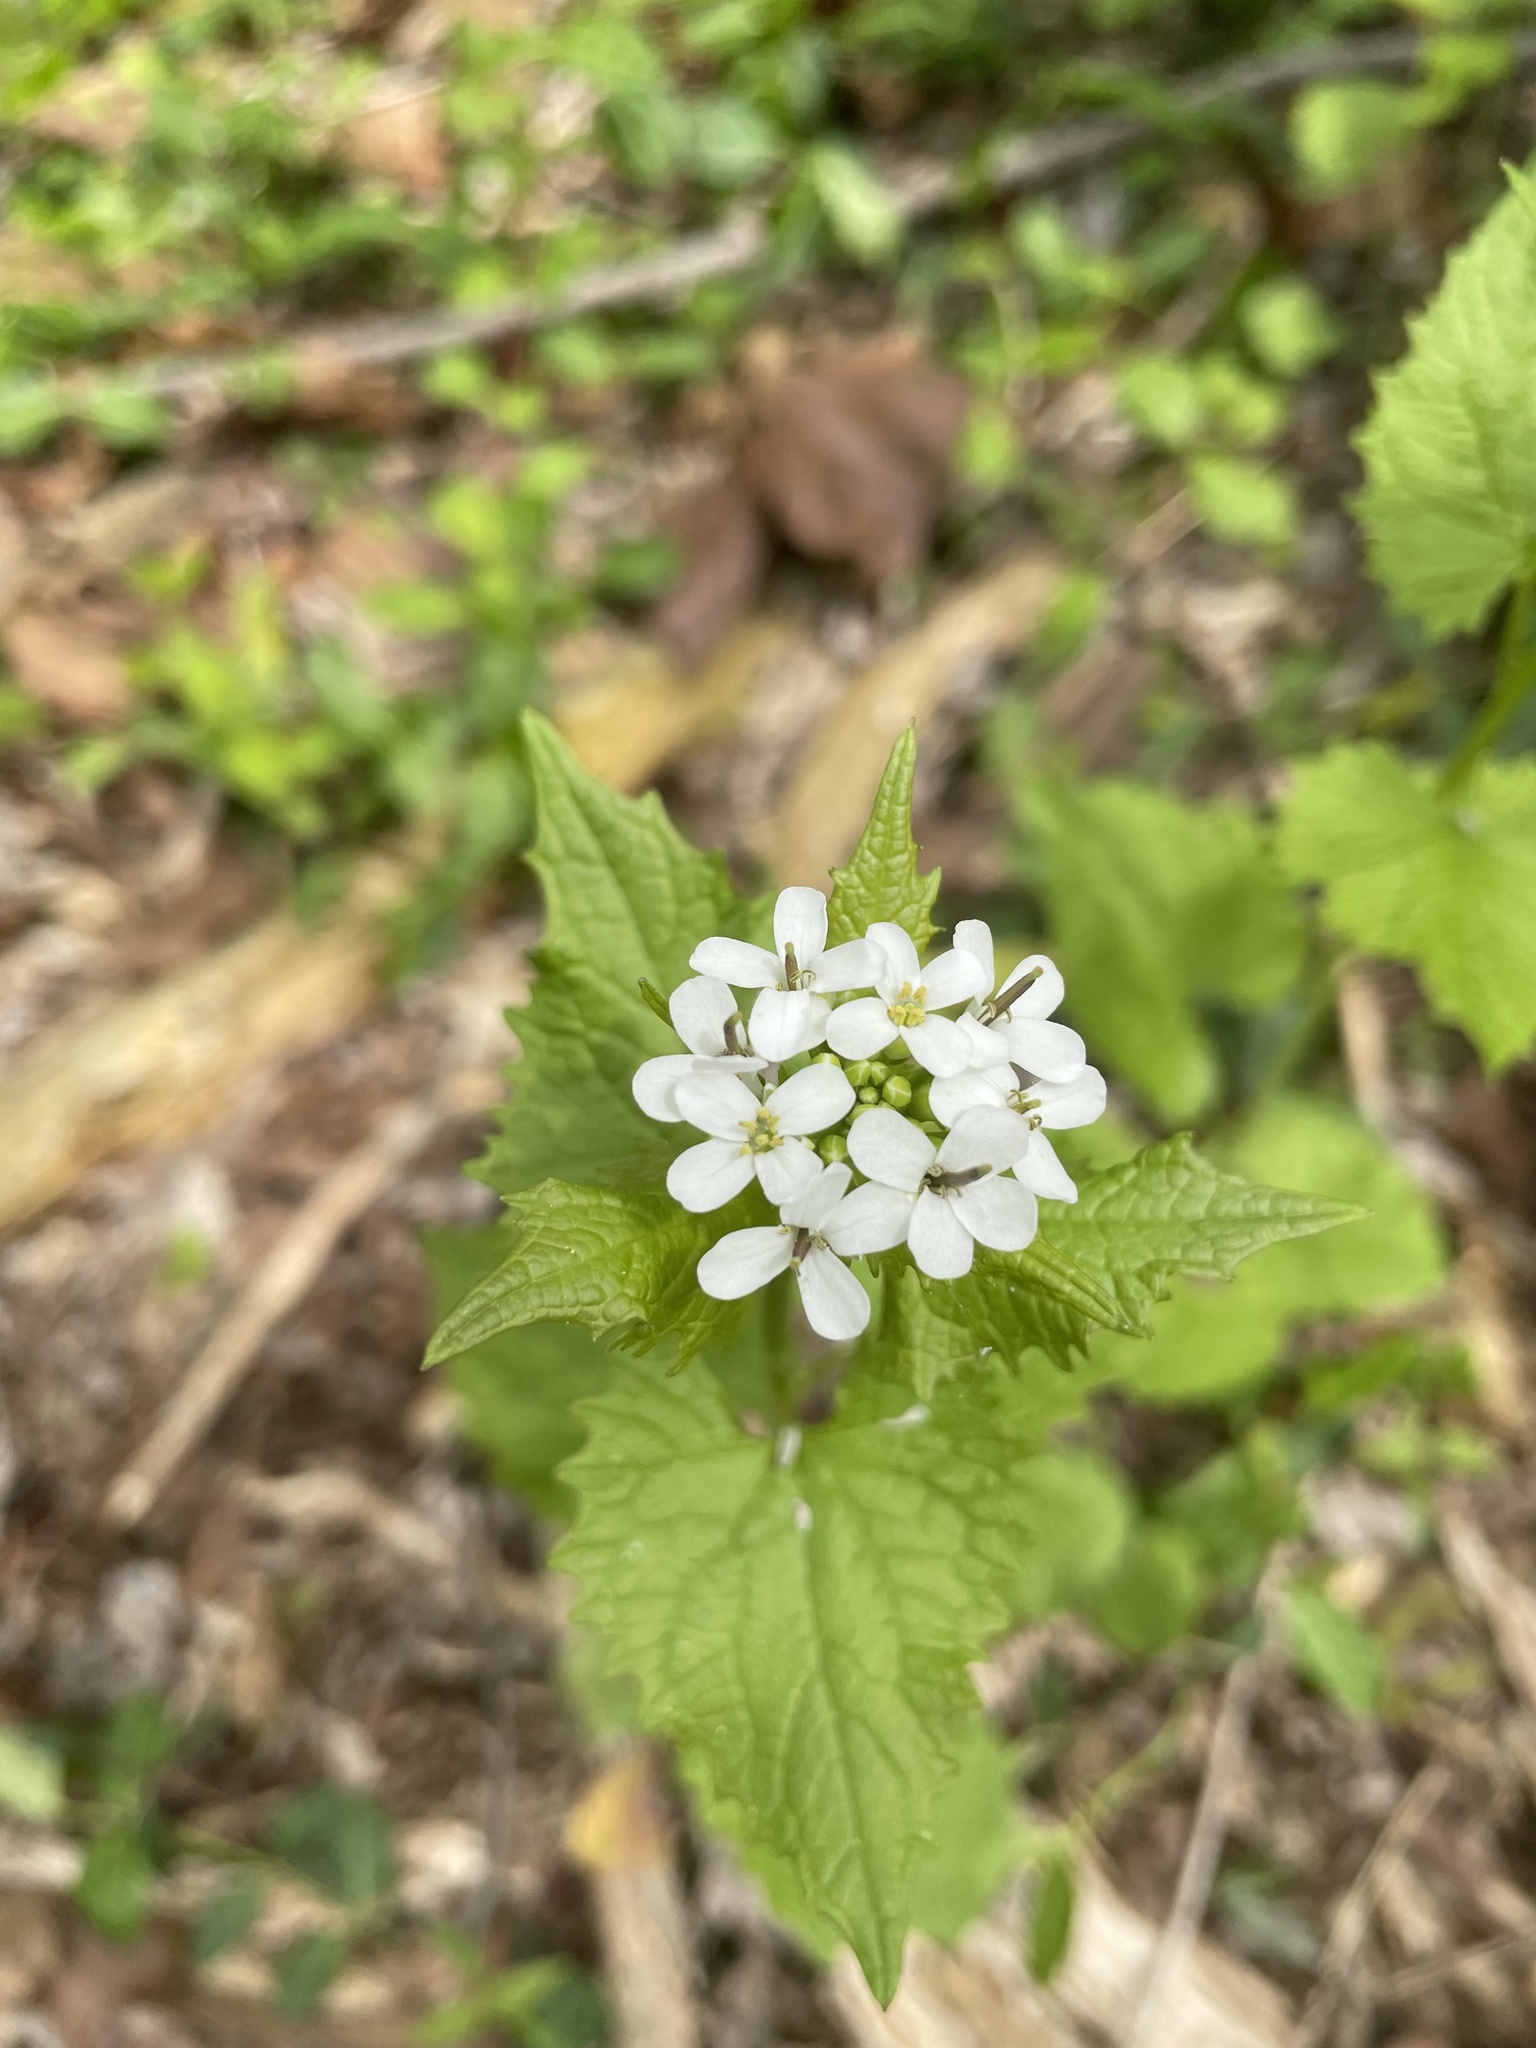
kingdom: Plantae
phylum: Tracheophyta
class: Magnoliopsida
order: Brassicales
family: Brassicaceae
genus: Alliaria
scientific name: Alliaria petiolata
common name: Garlic mustard
